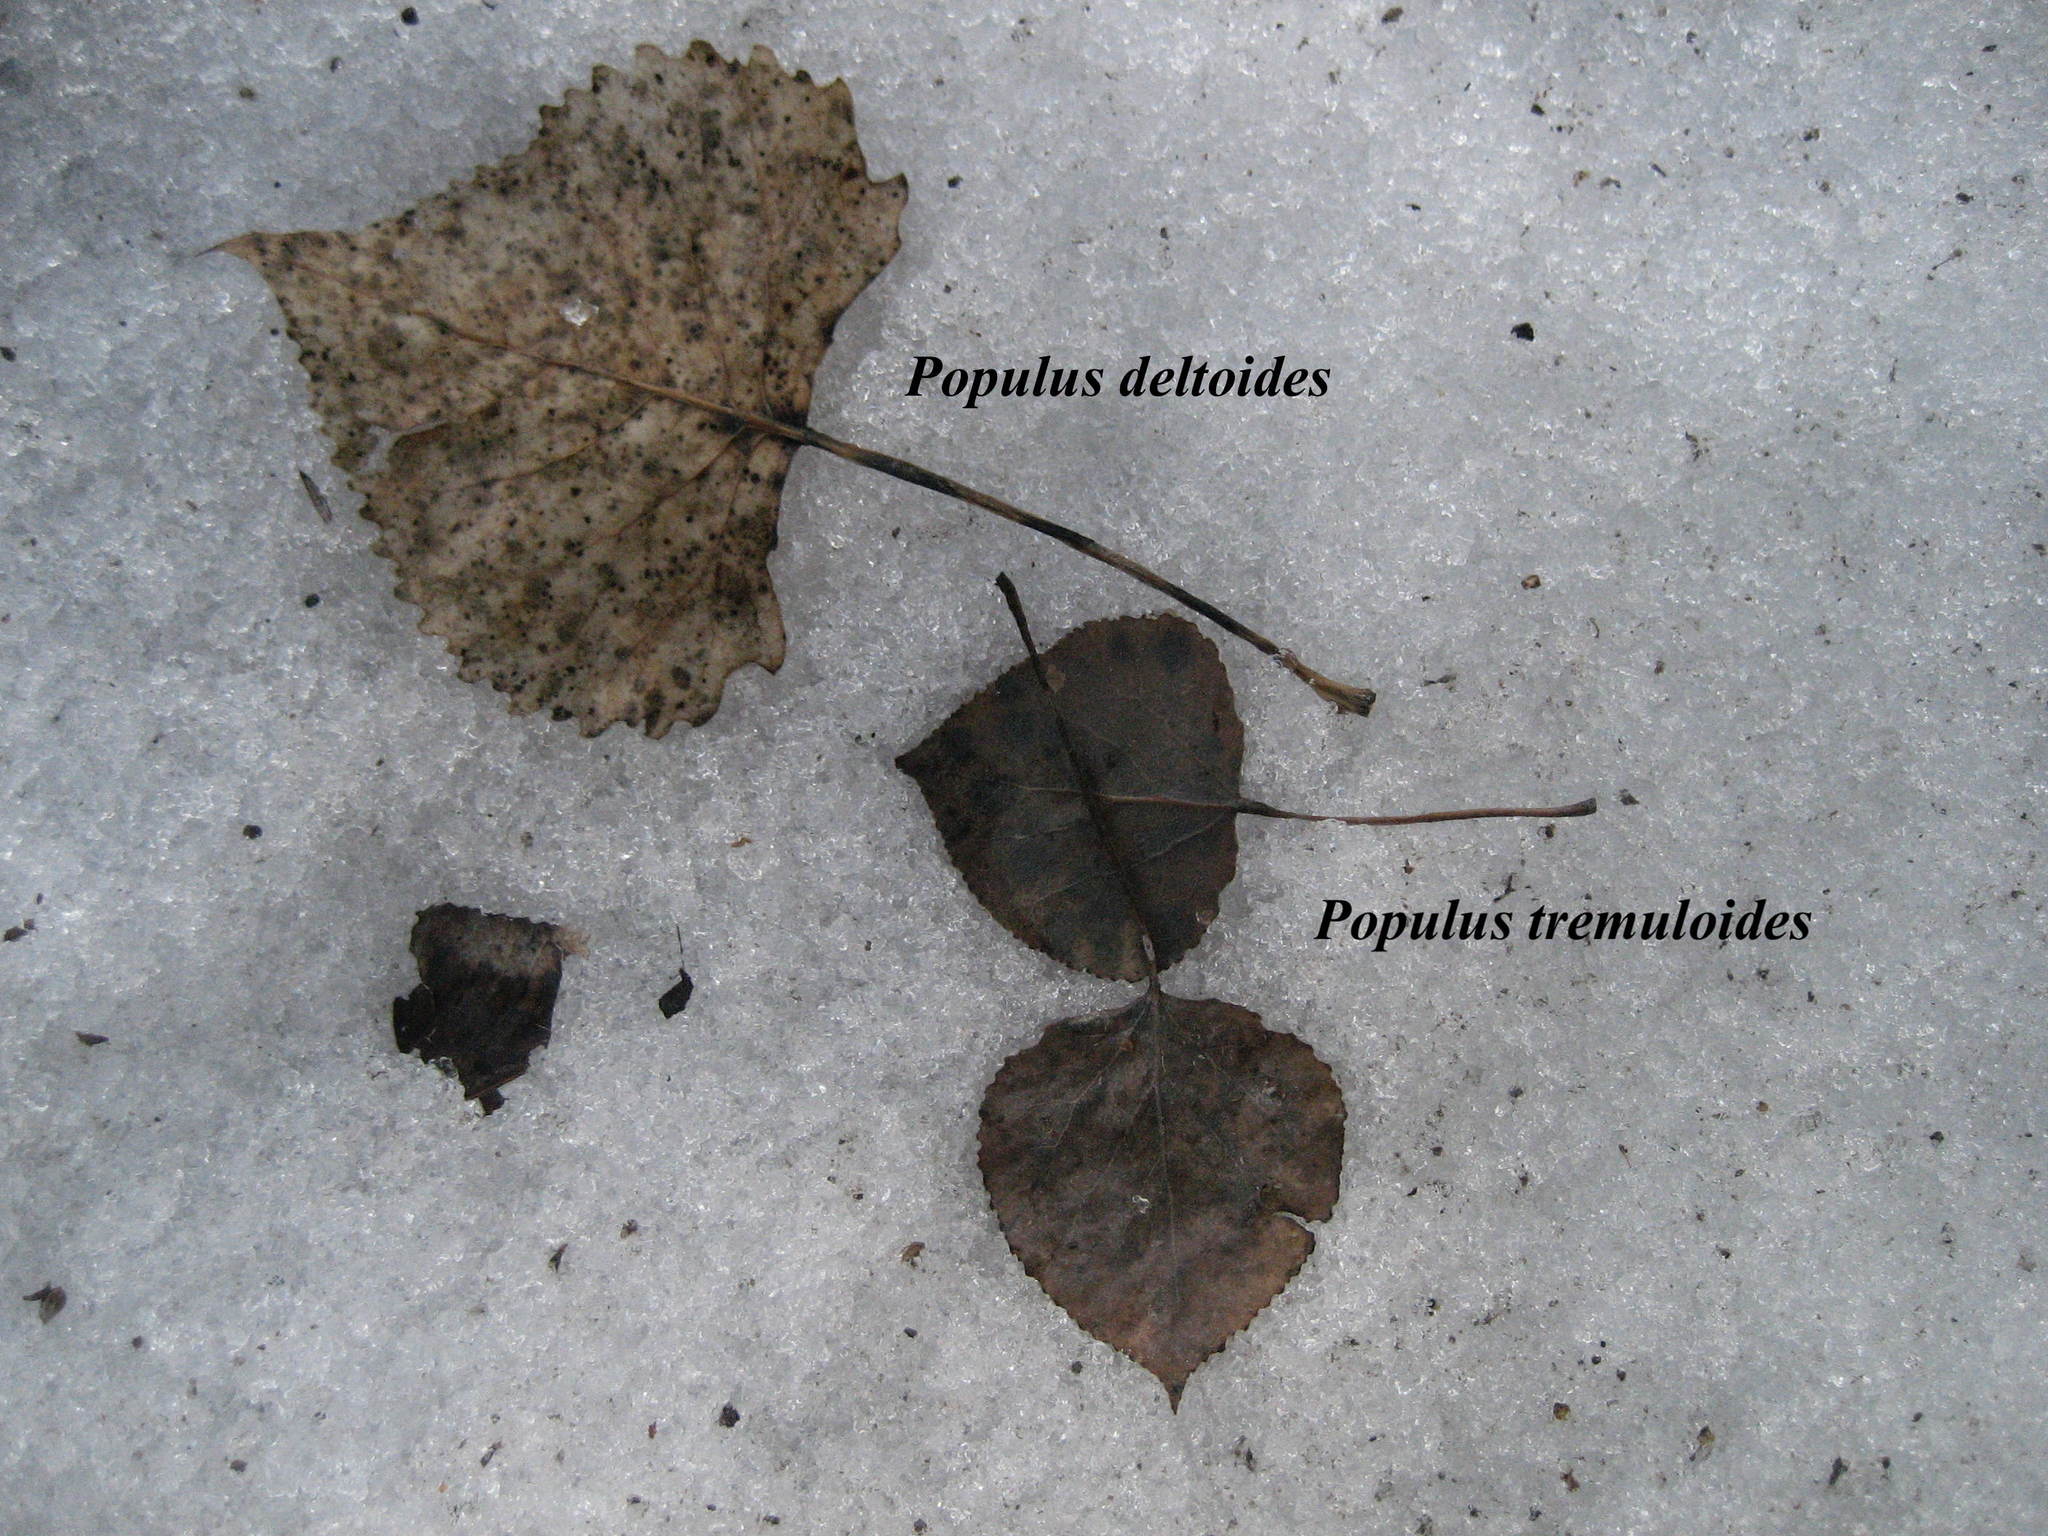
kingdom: Plantae
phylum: Tracheophyta
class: Magnoliopsida
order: Malpighiales
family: Salicaceae
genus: Populus
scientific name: Populus tremuloides
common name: Quaking aspen
